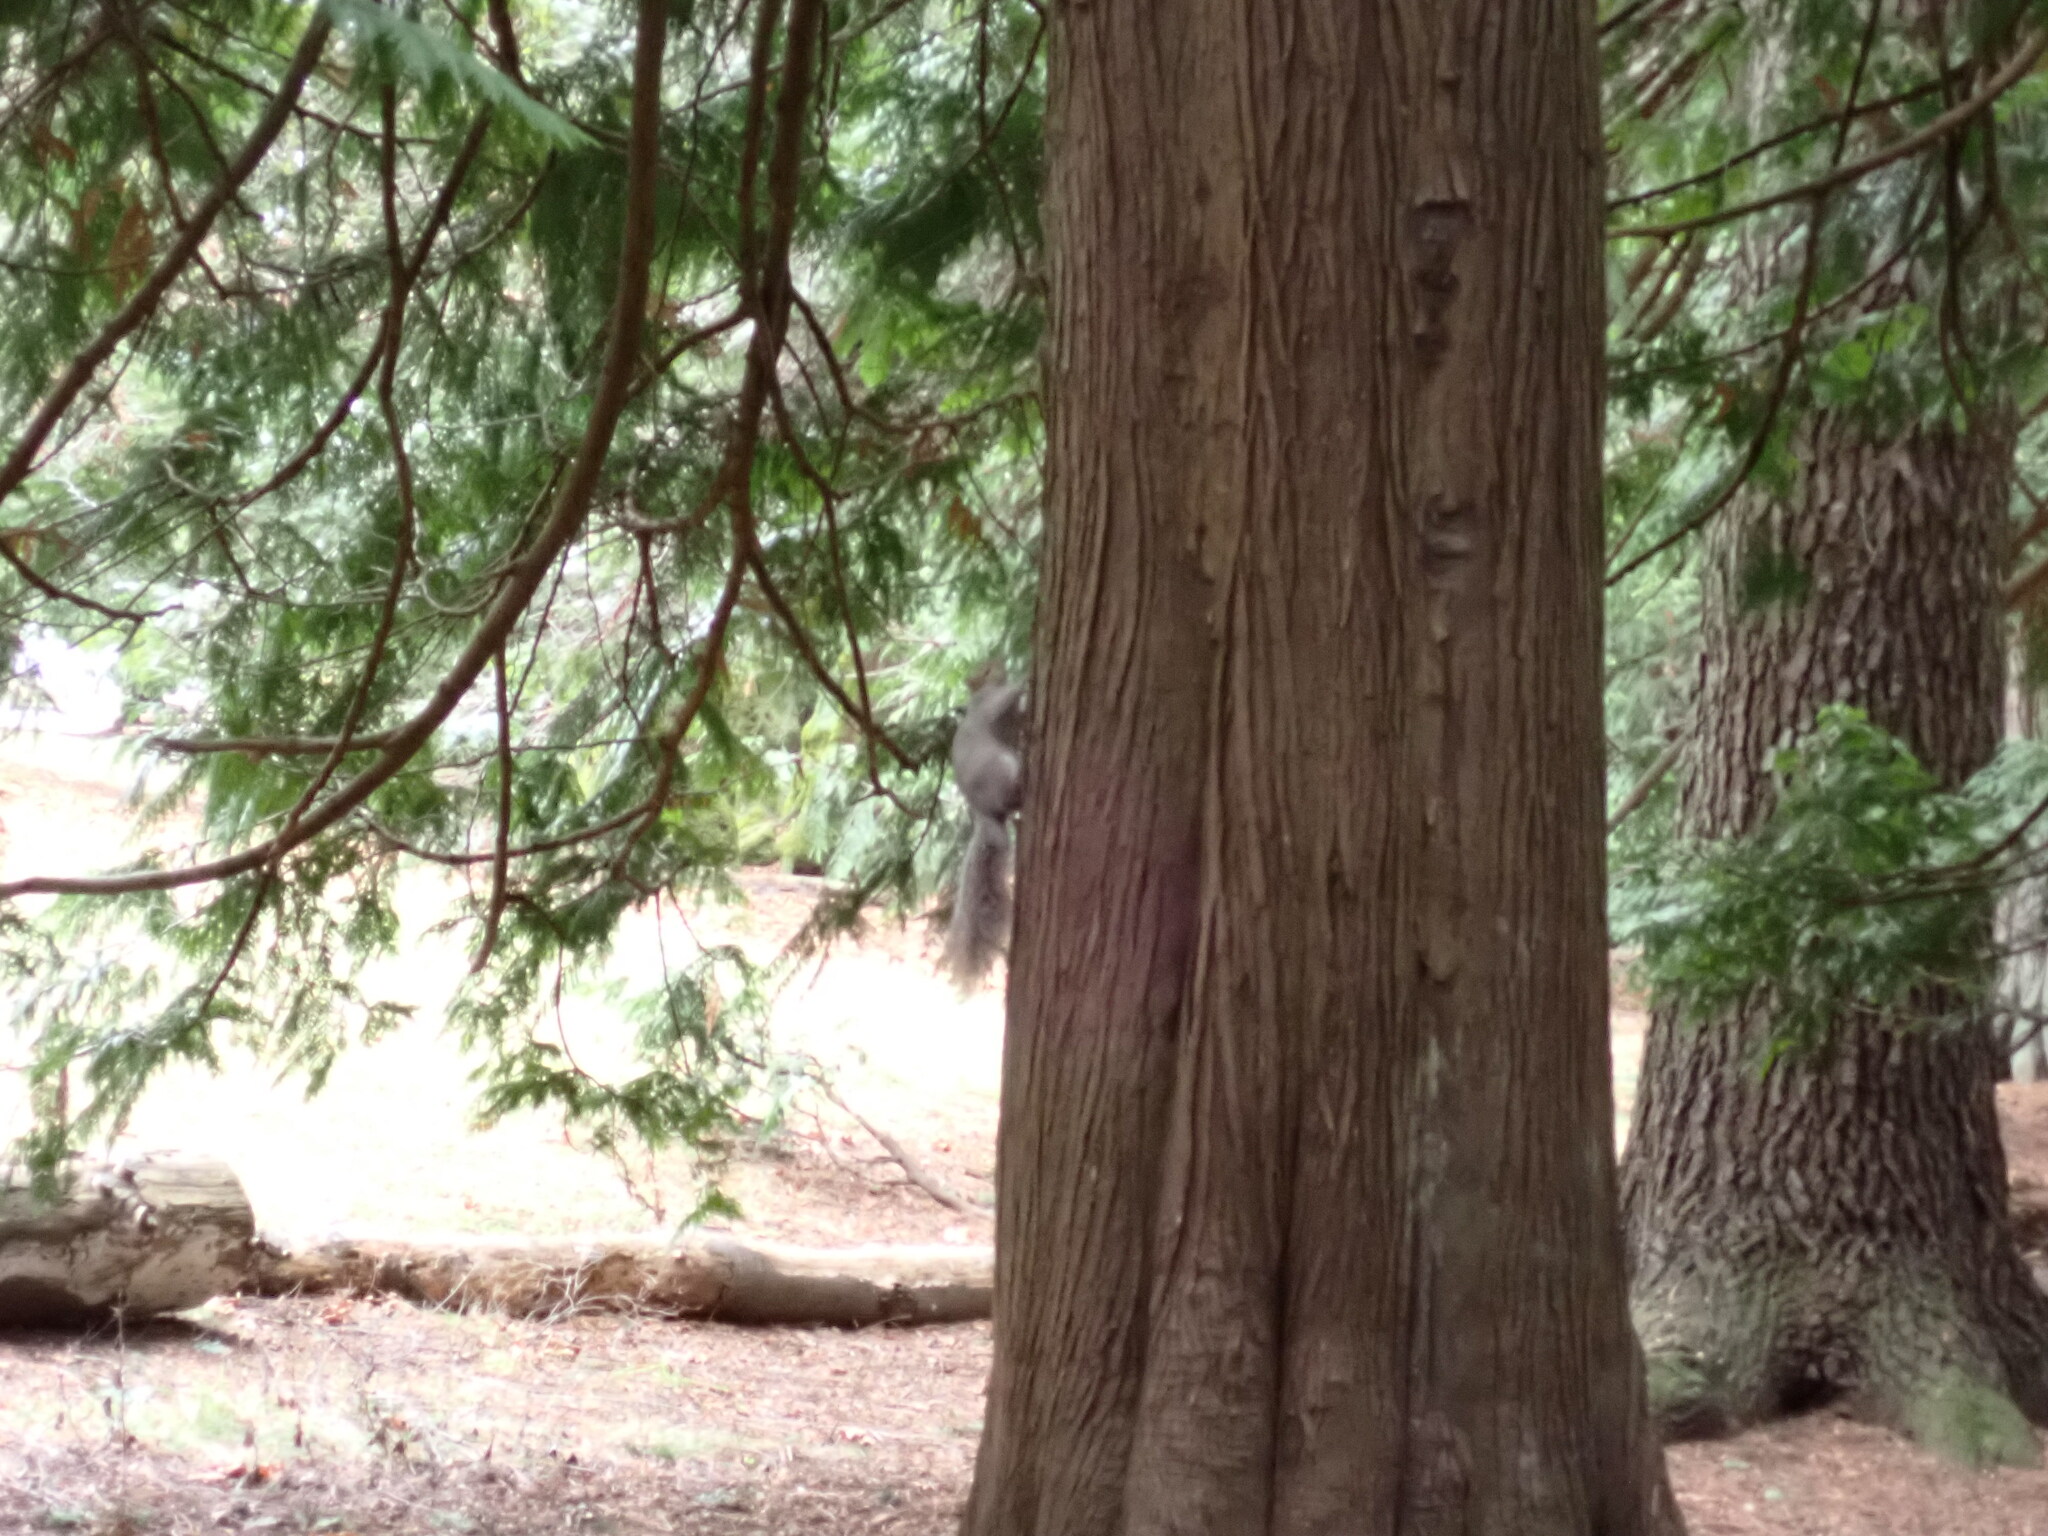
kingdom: Animalia
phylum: Chordata
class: Mammalia
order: Rodentia
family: Sciuridae
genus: Sciurus
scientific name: Sciurus carolinensis
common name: Eastern gray squirrel
